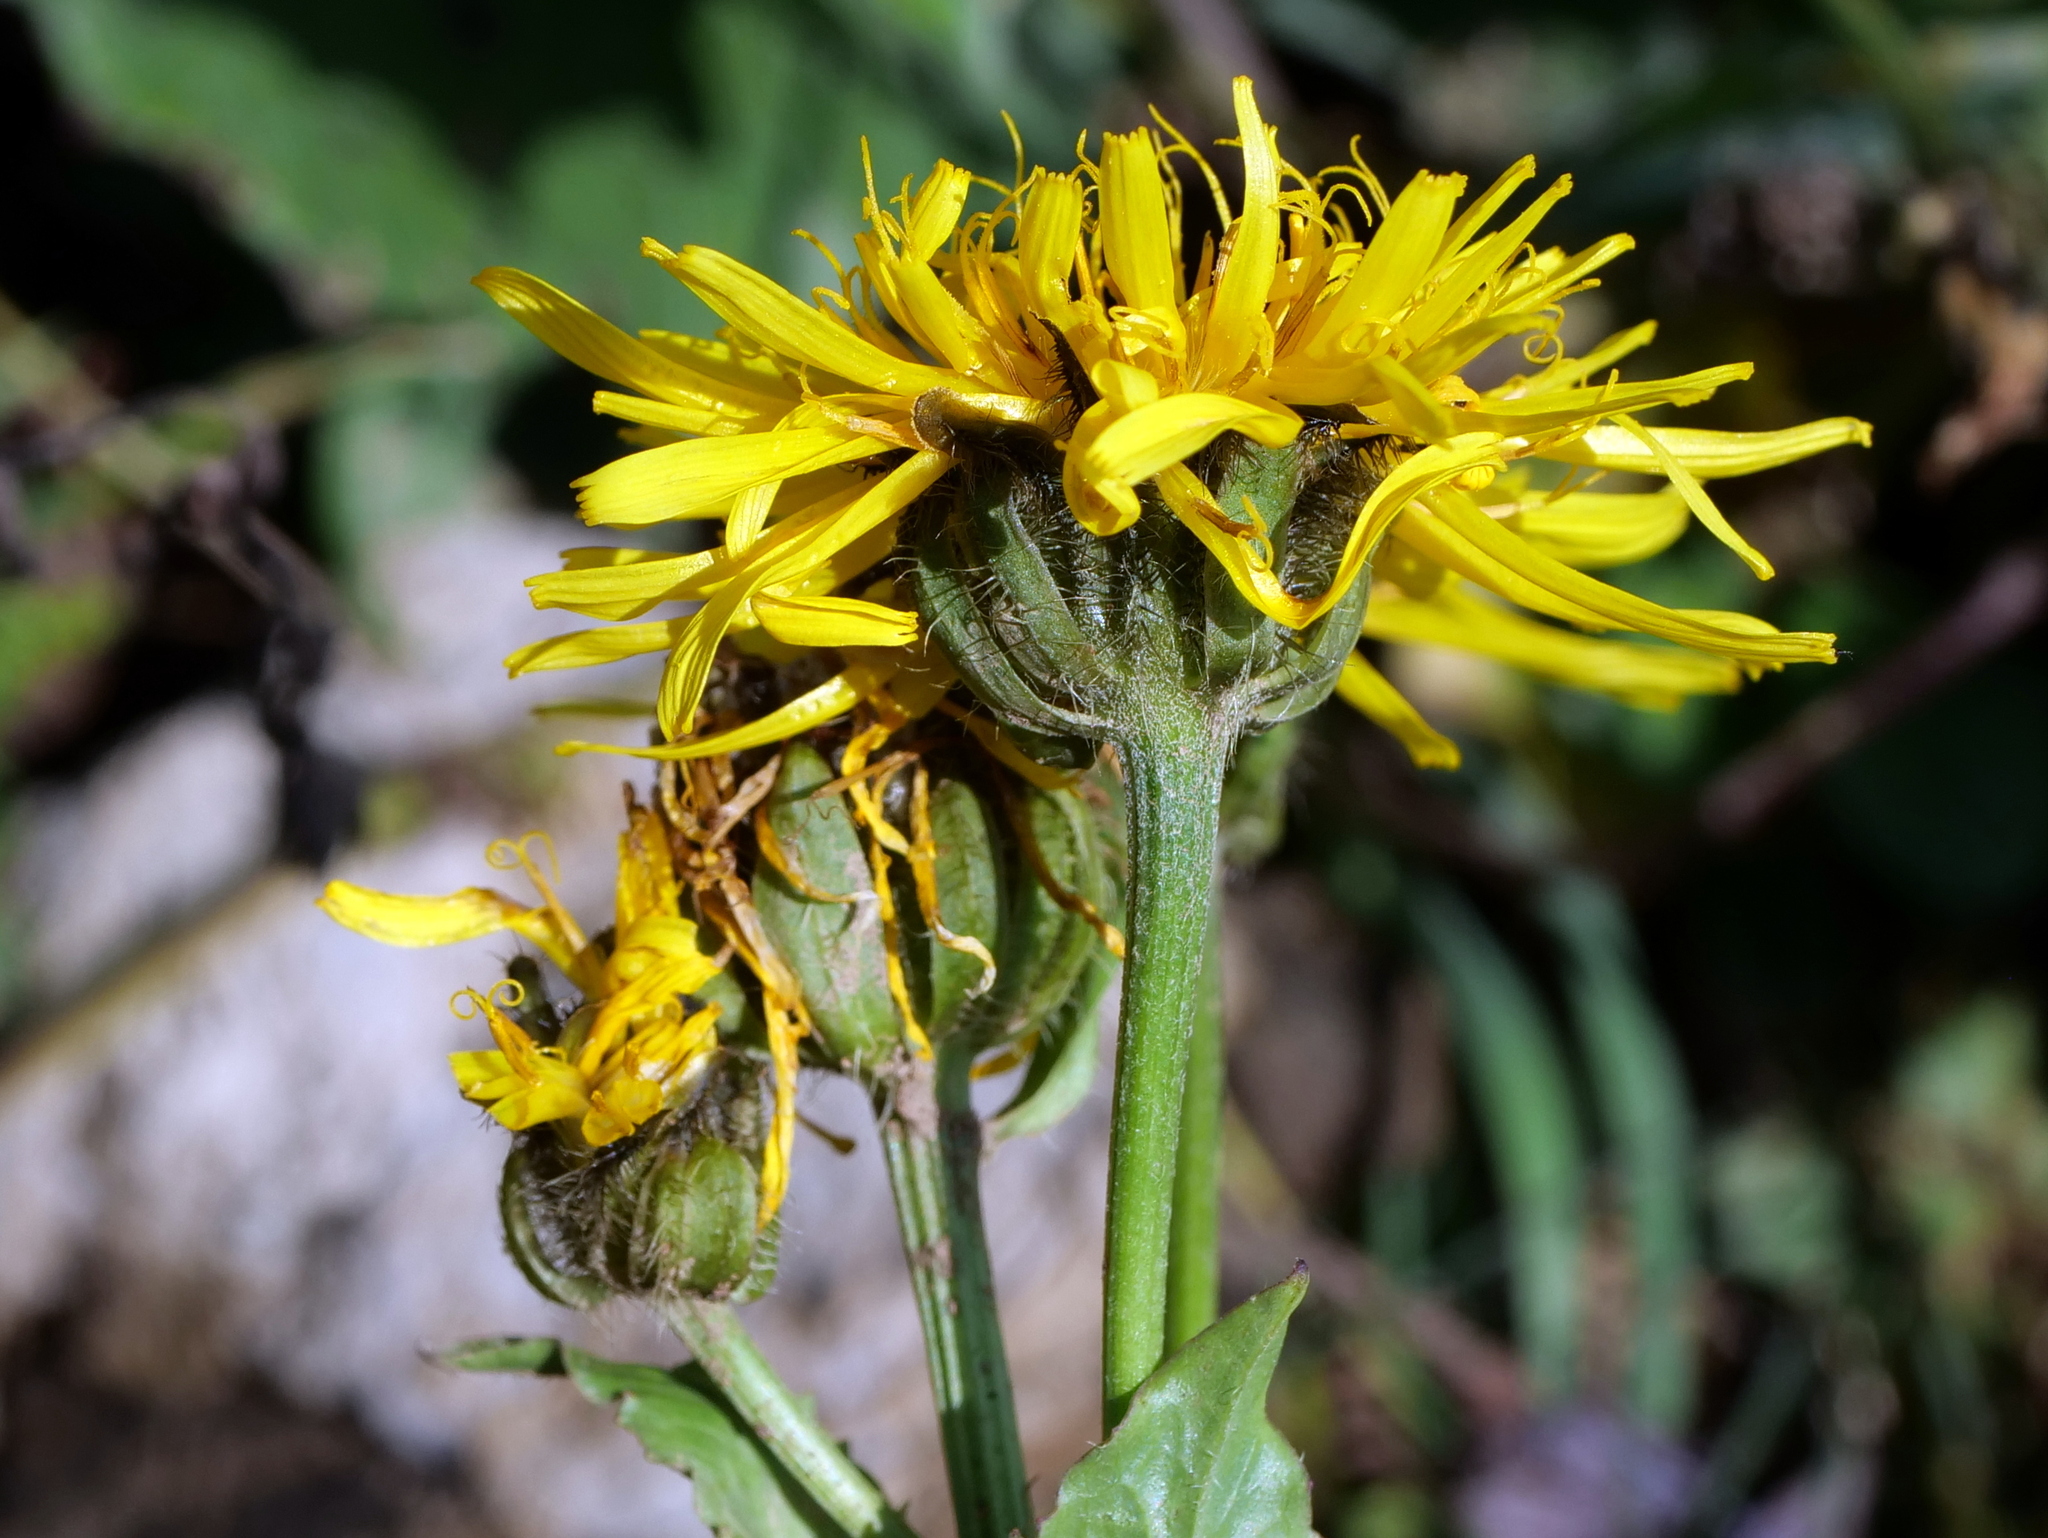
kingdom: Plantae
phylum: Tracheophyta
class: Magnoliopsida
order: Asterales
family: Asteraceae
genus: Crepis
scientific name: Crepis pyrenaica
